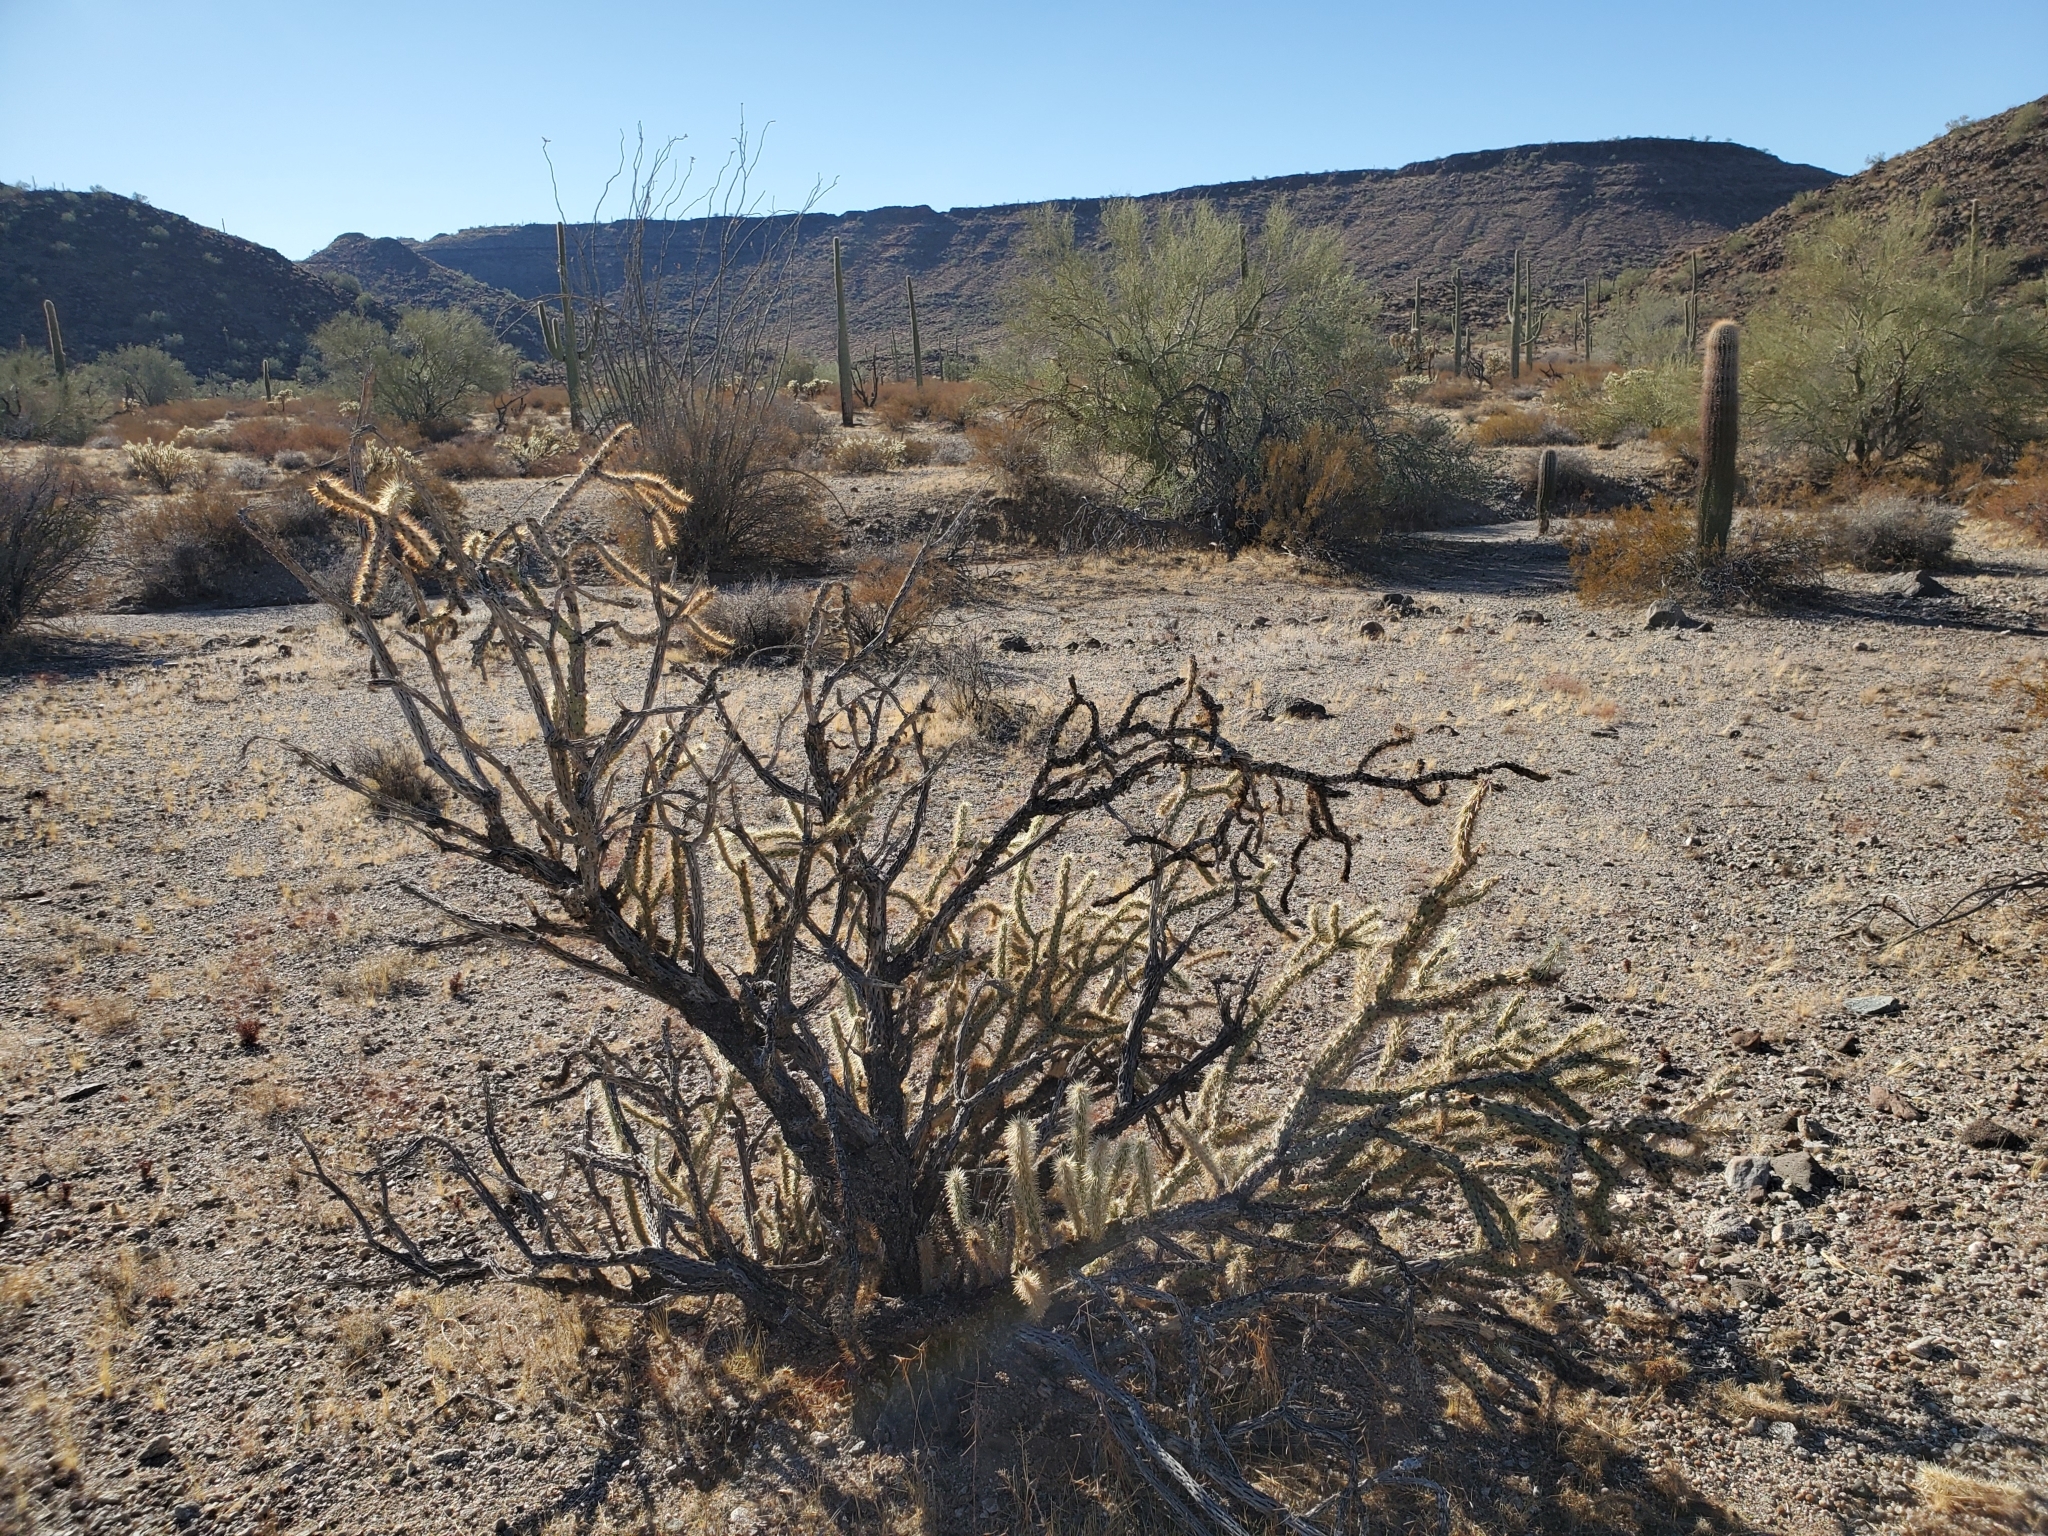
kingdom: Plantae
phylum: Tracheophyta
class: Magnoliopsida
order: Caryophyllales
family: Cactaceae
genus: Cylindropuntia
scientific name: Cylindropuntia acanthocarpa
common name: Buckhorn cholla
